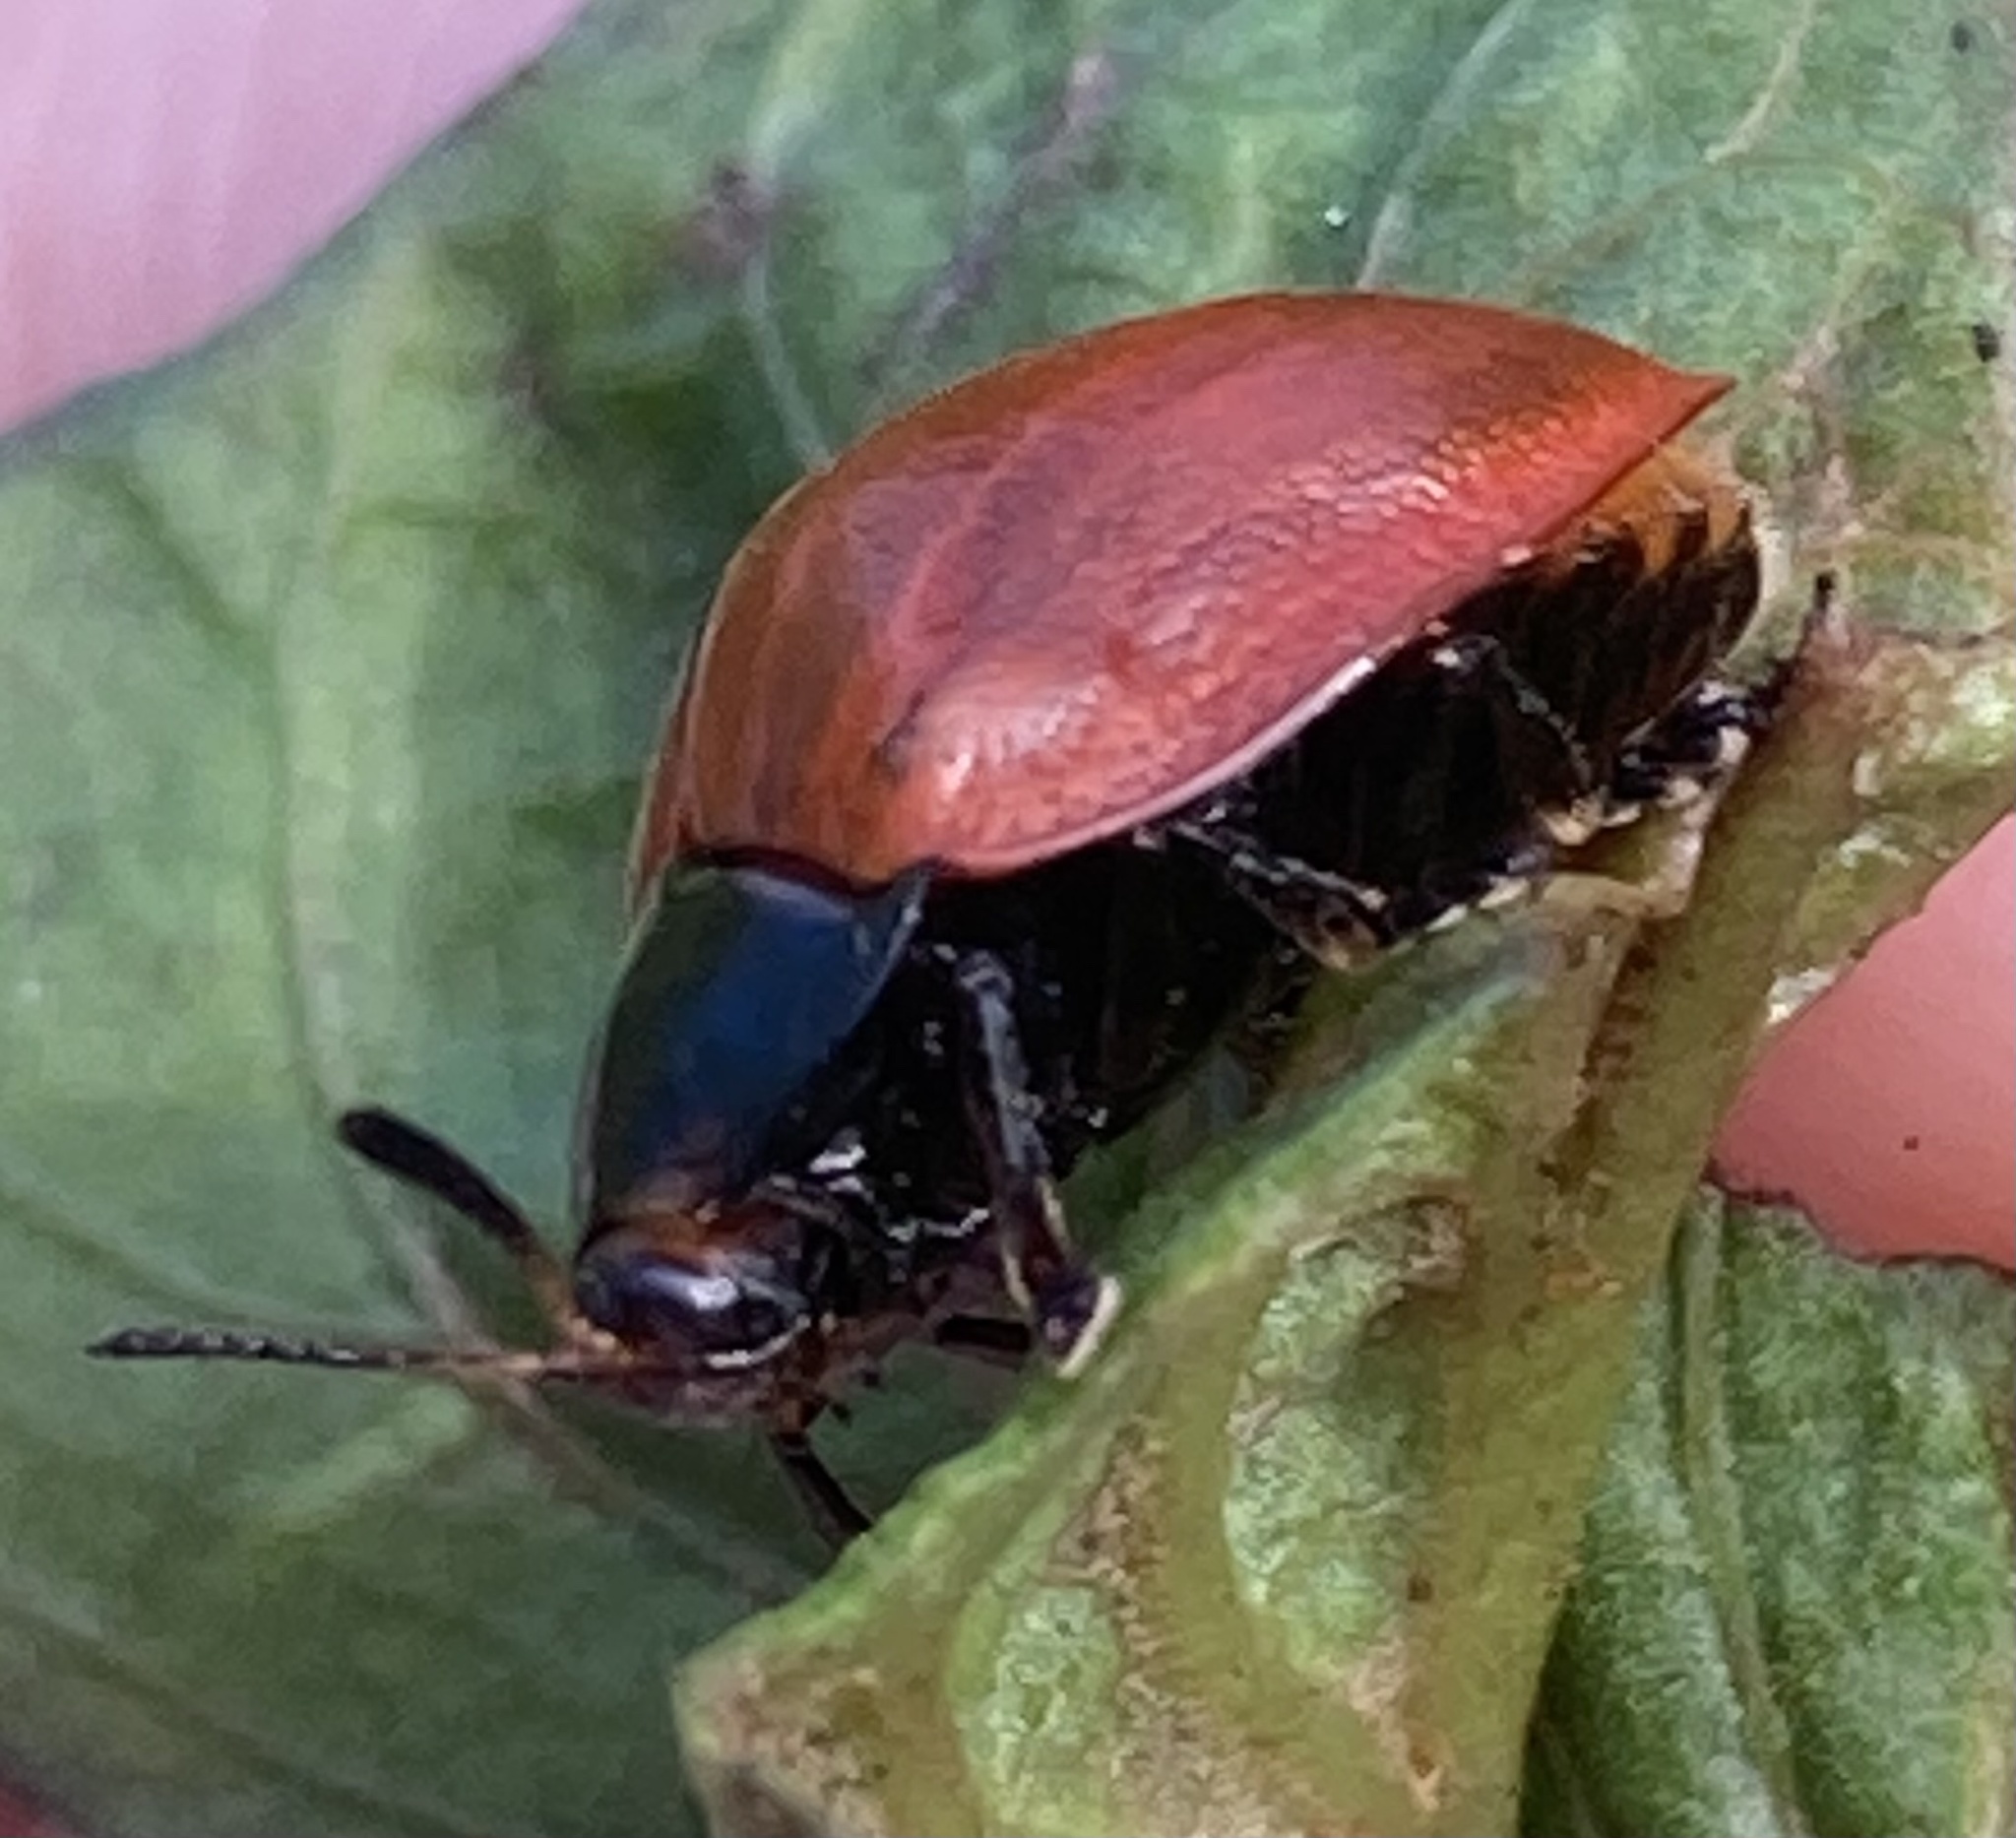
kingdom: Animalia
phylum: Arthropoda
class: Insecta
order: Coleoptera
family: Chrysomelidae
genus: Chelymorpha
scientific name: Chelymorpha cribraria
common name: Tortoise beetle
